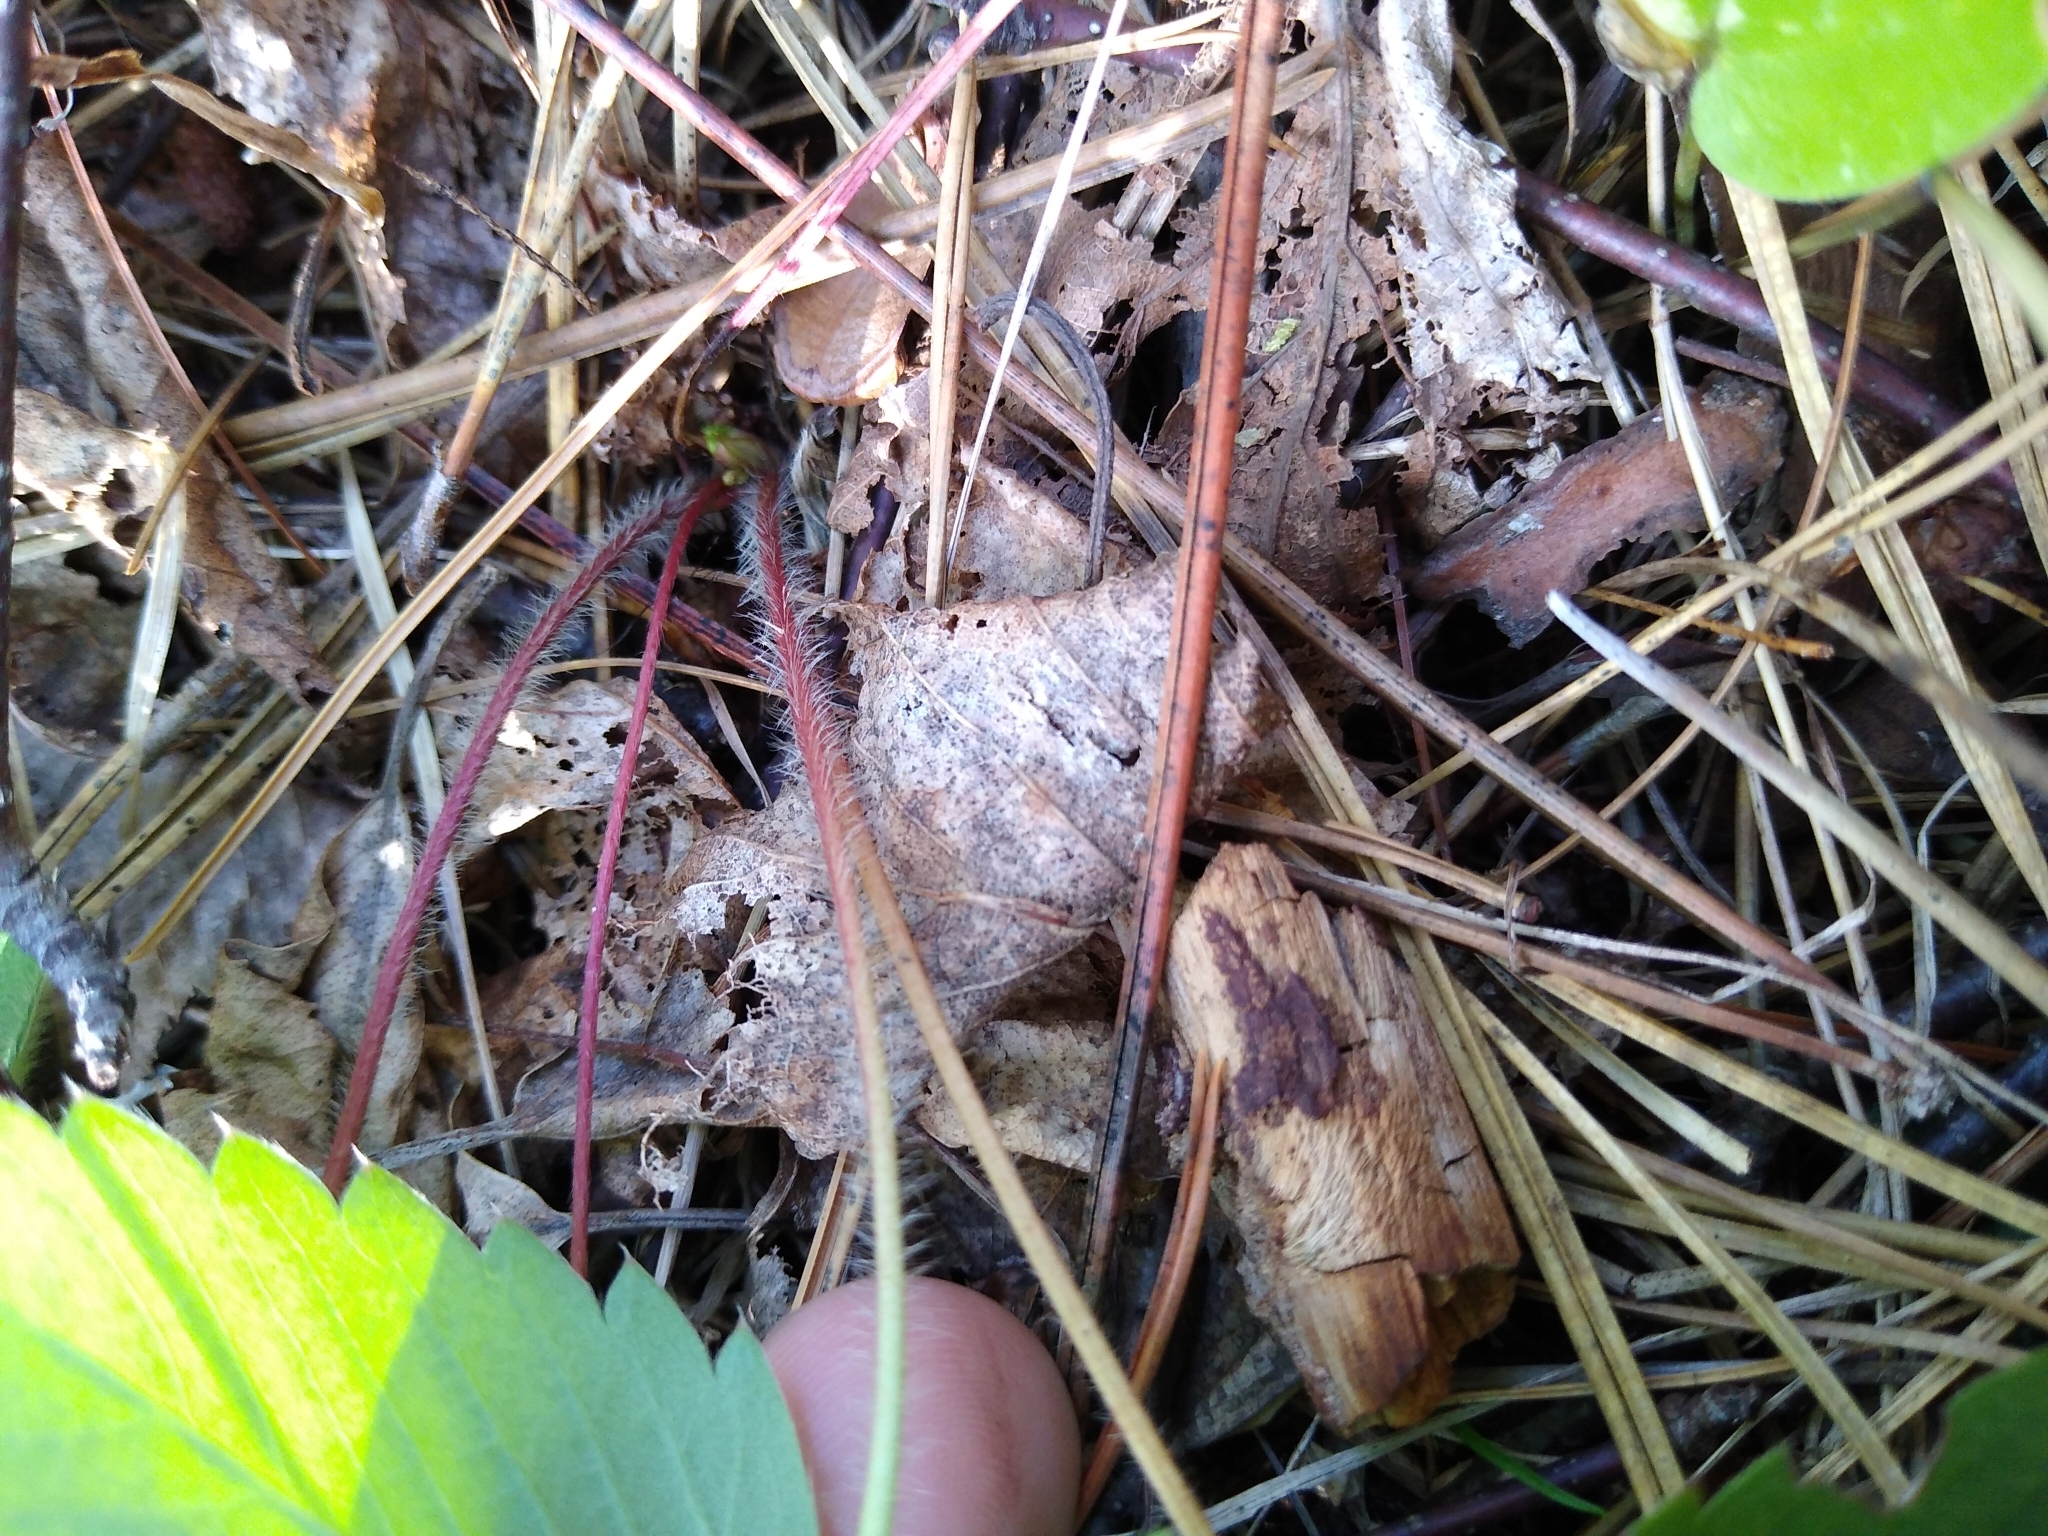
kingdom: Plantae
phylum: Tracheophyta
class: Magnoliopsida
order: Rosales
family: Rosaceae
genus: Fragaria
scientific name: Fragaria virginiana
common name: Thickleaved wild strawberry
